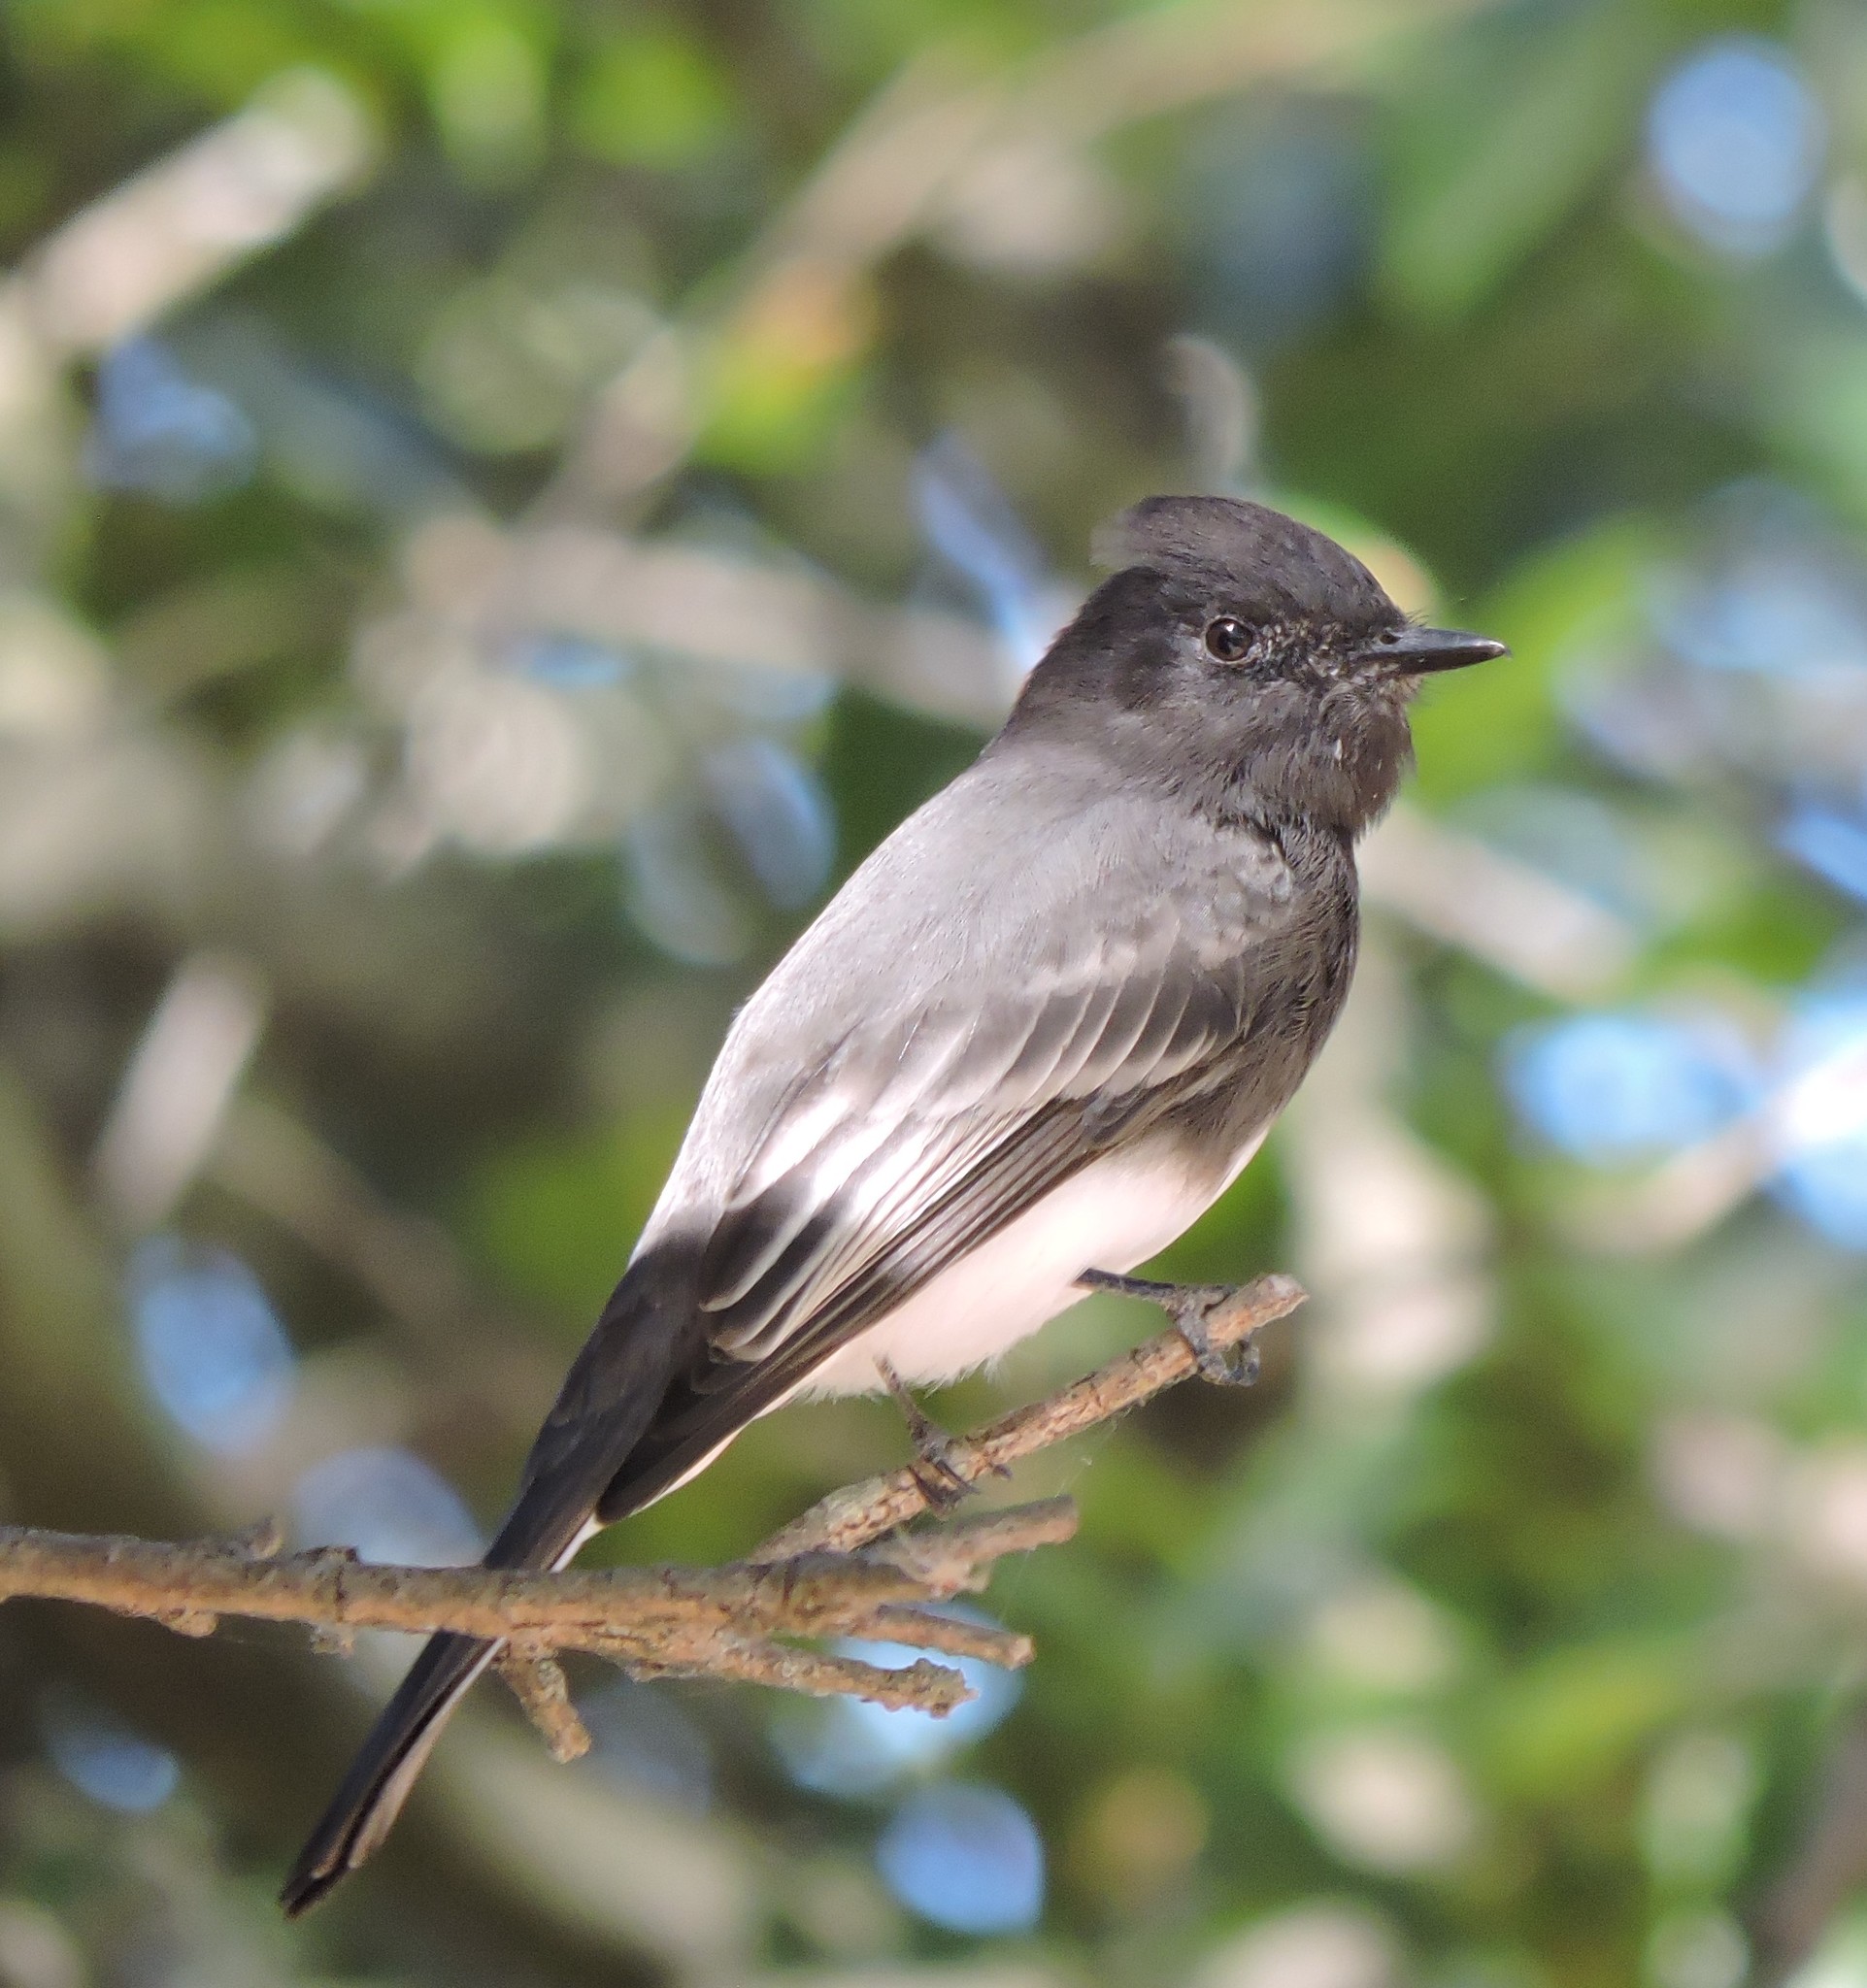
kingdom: Animalia
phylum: Chordata
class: Aves
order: Passeriformes
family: Tyrannidae
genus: Sayornis
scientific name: Sayornis nigricans
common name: Black phoebe
